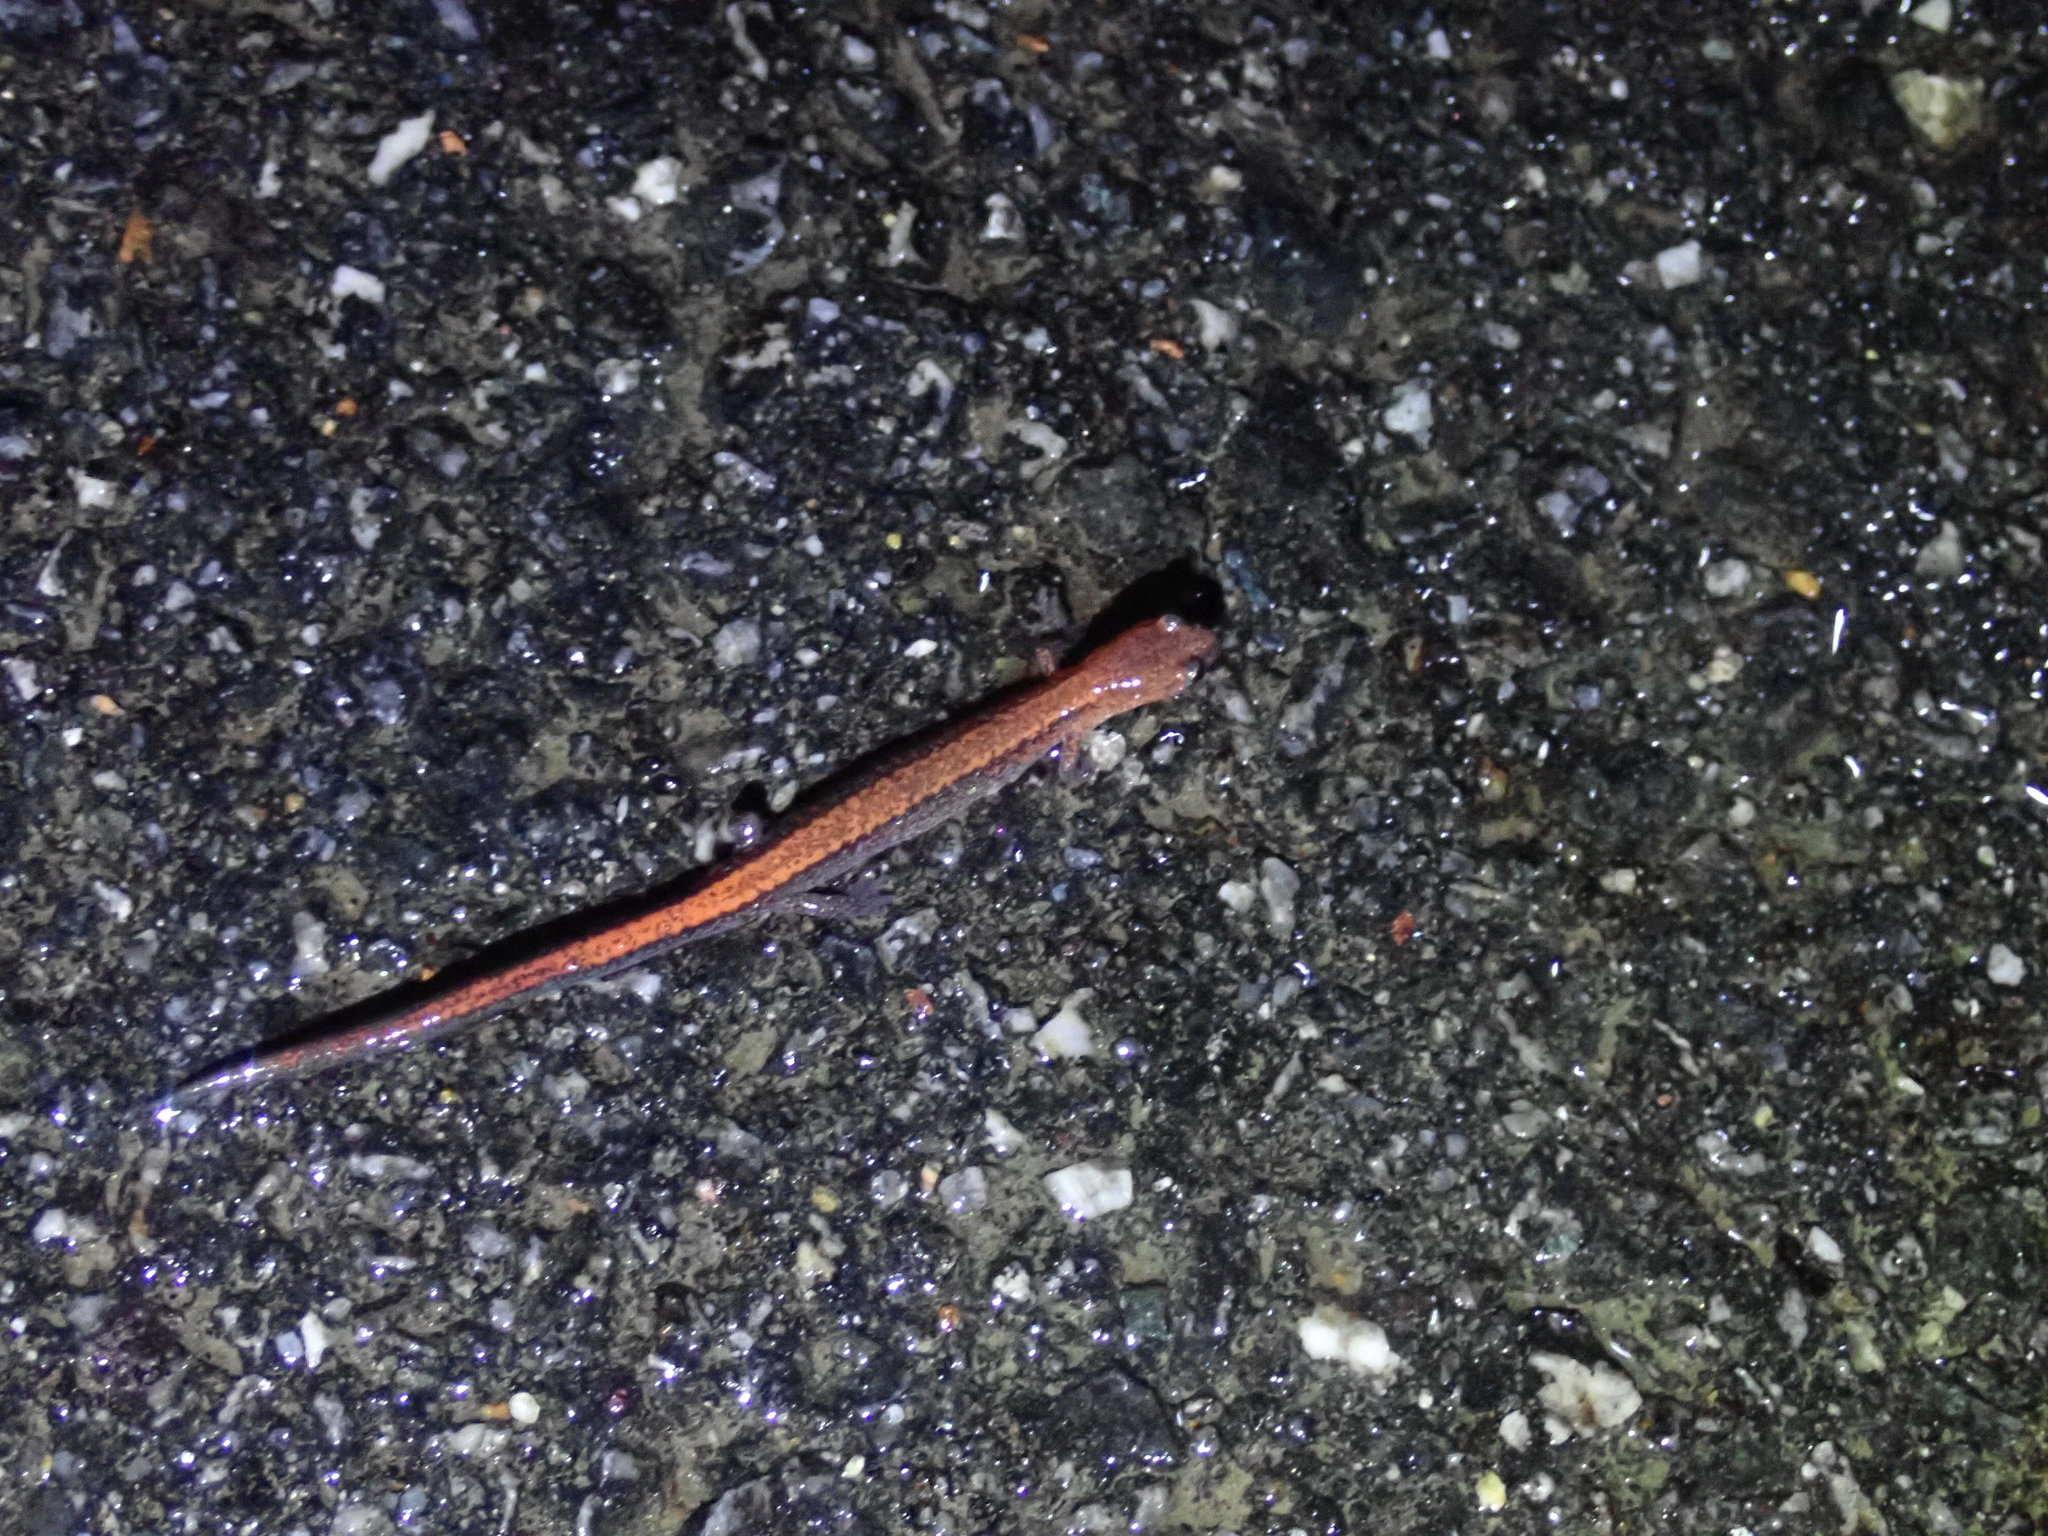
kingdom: Animalia
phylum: Chordata
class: Amphibia
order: Caudata
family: Plethodontidae
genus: Plethodon
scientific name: Plethodon cinereus
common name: Redback salamander
